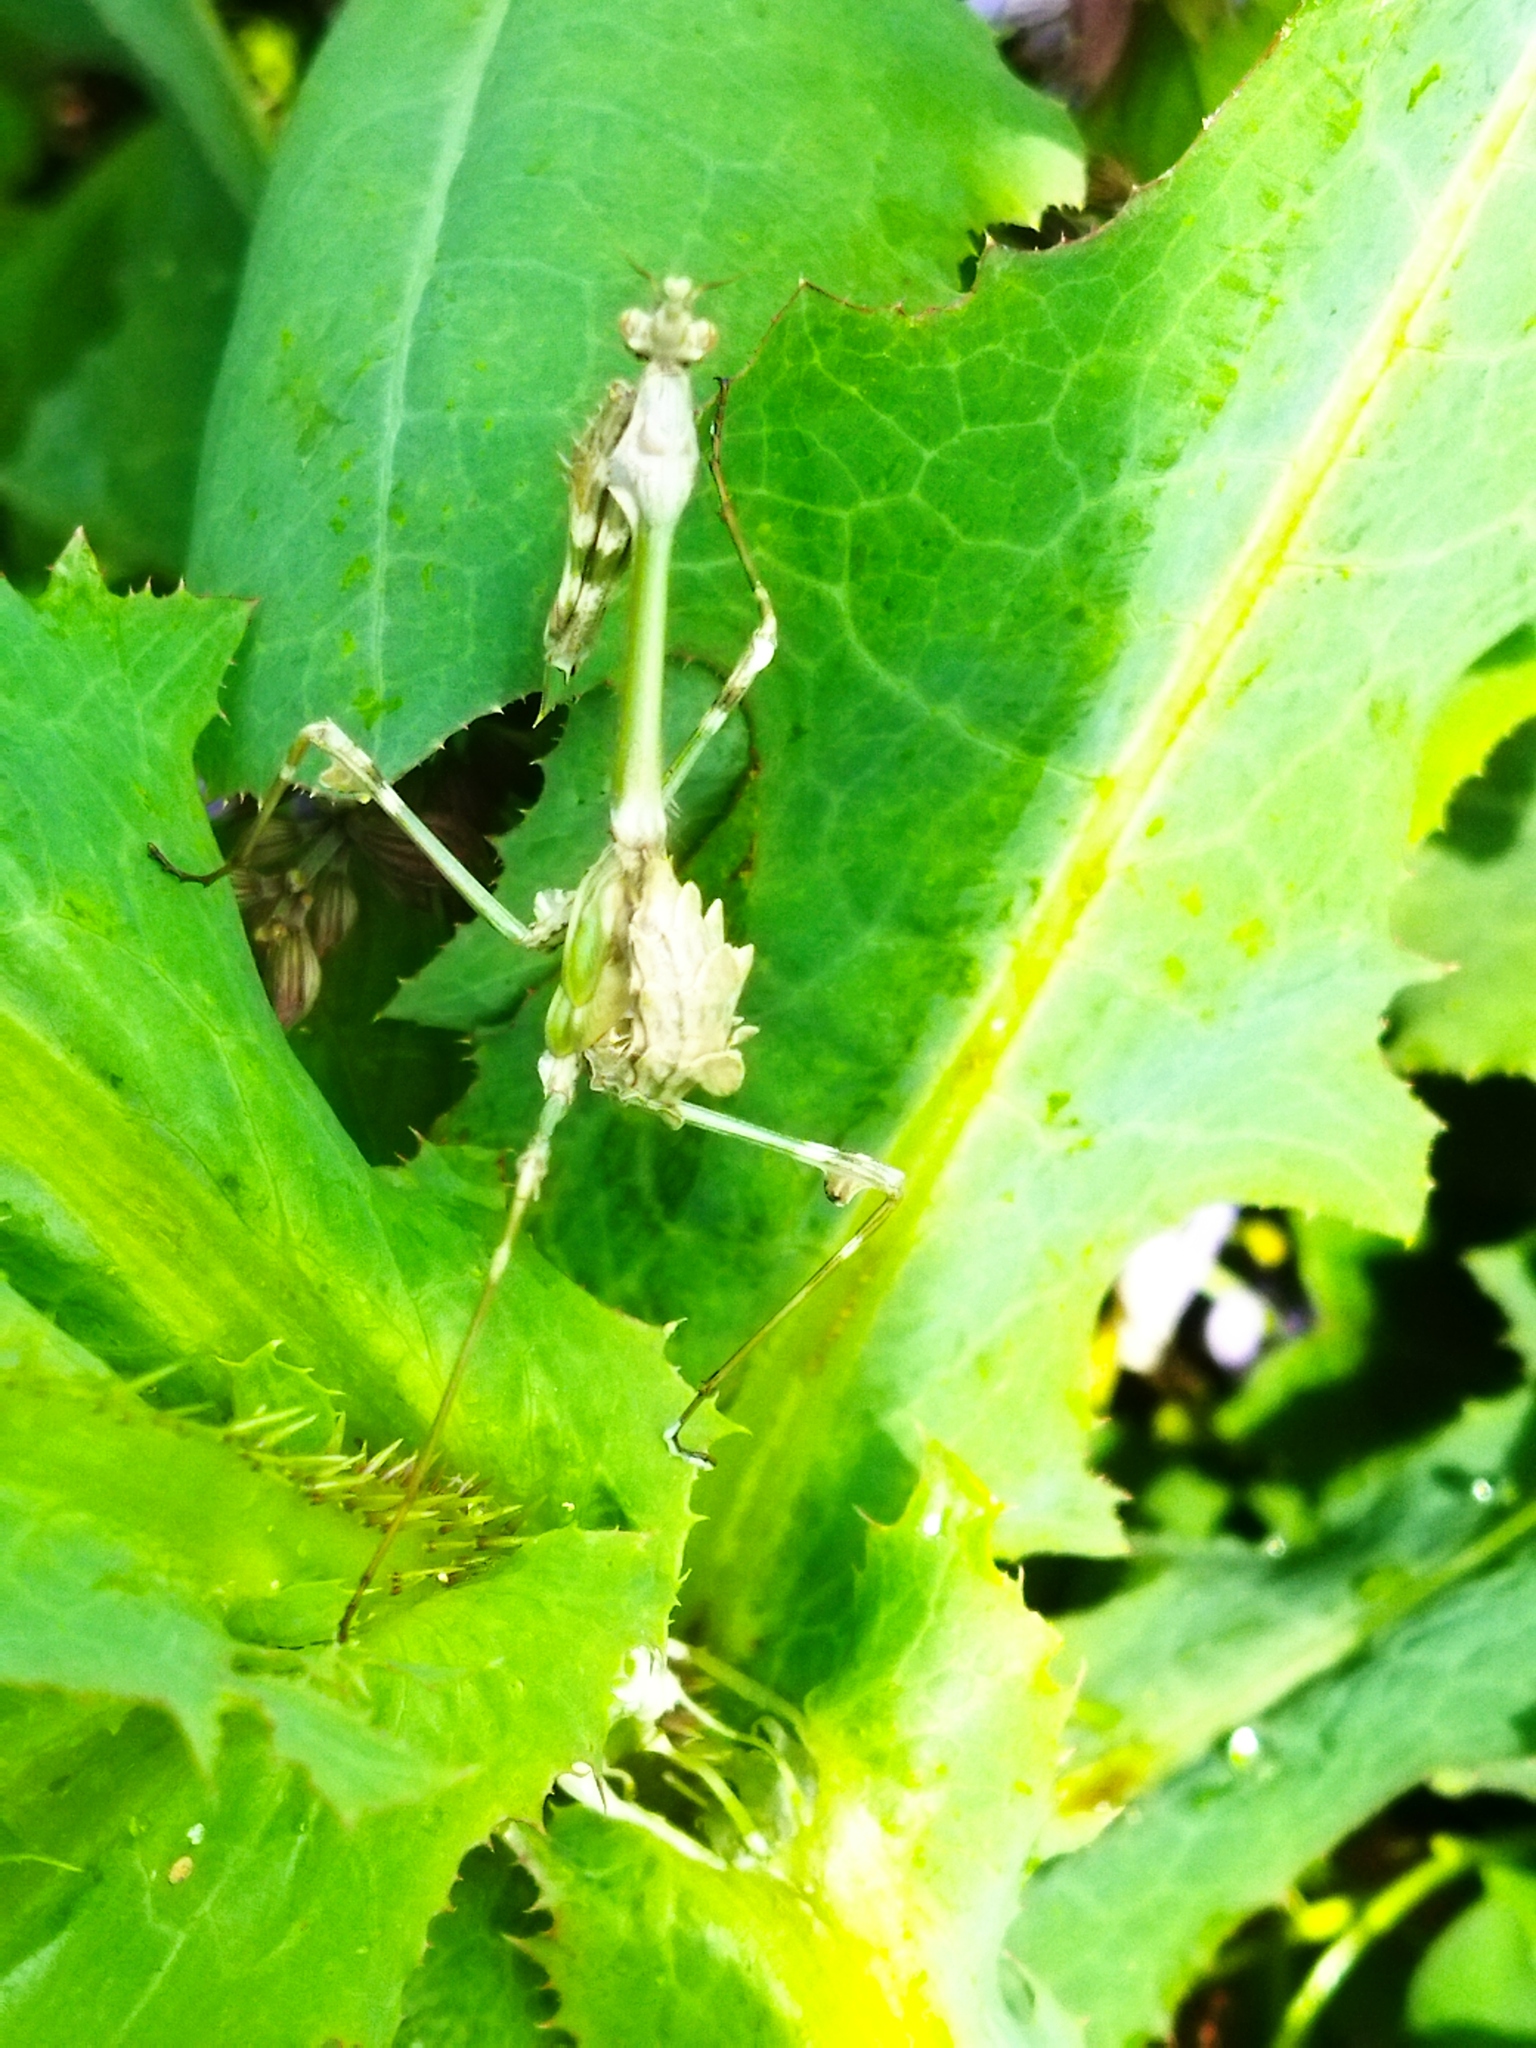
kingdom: Animalia
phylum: Arthropoda
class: Insecta
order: Mantodea
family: Empusidae
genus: Empusa
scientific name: Empusa fasciata
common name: Devil's mare
